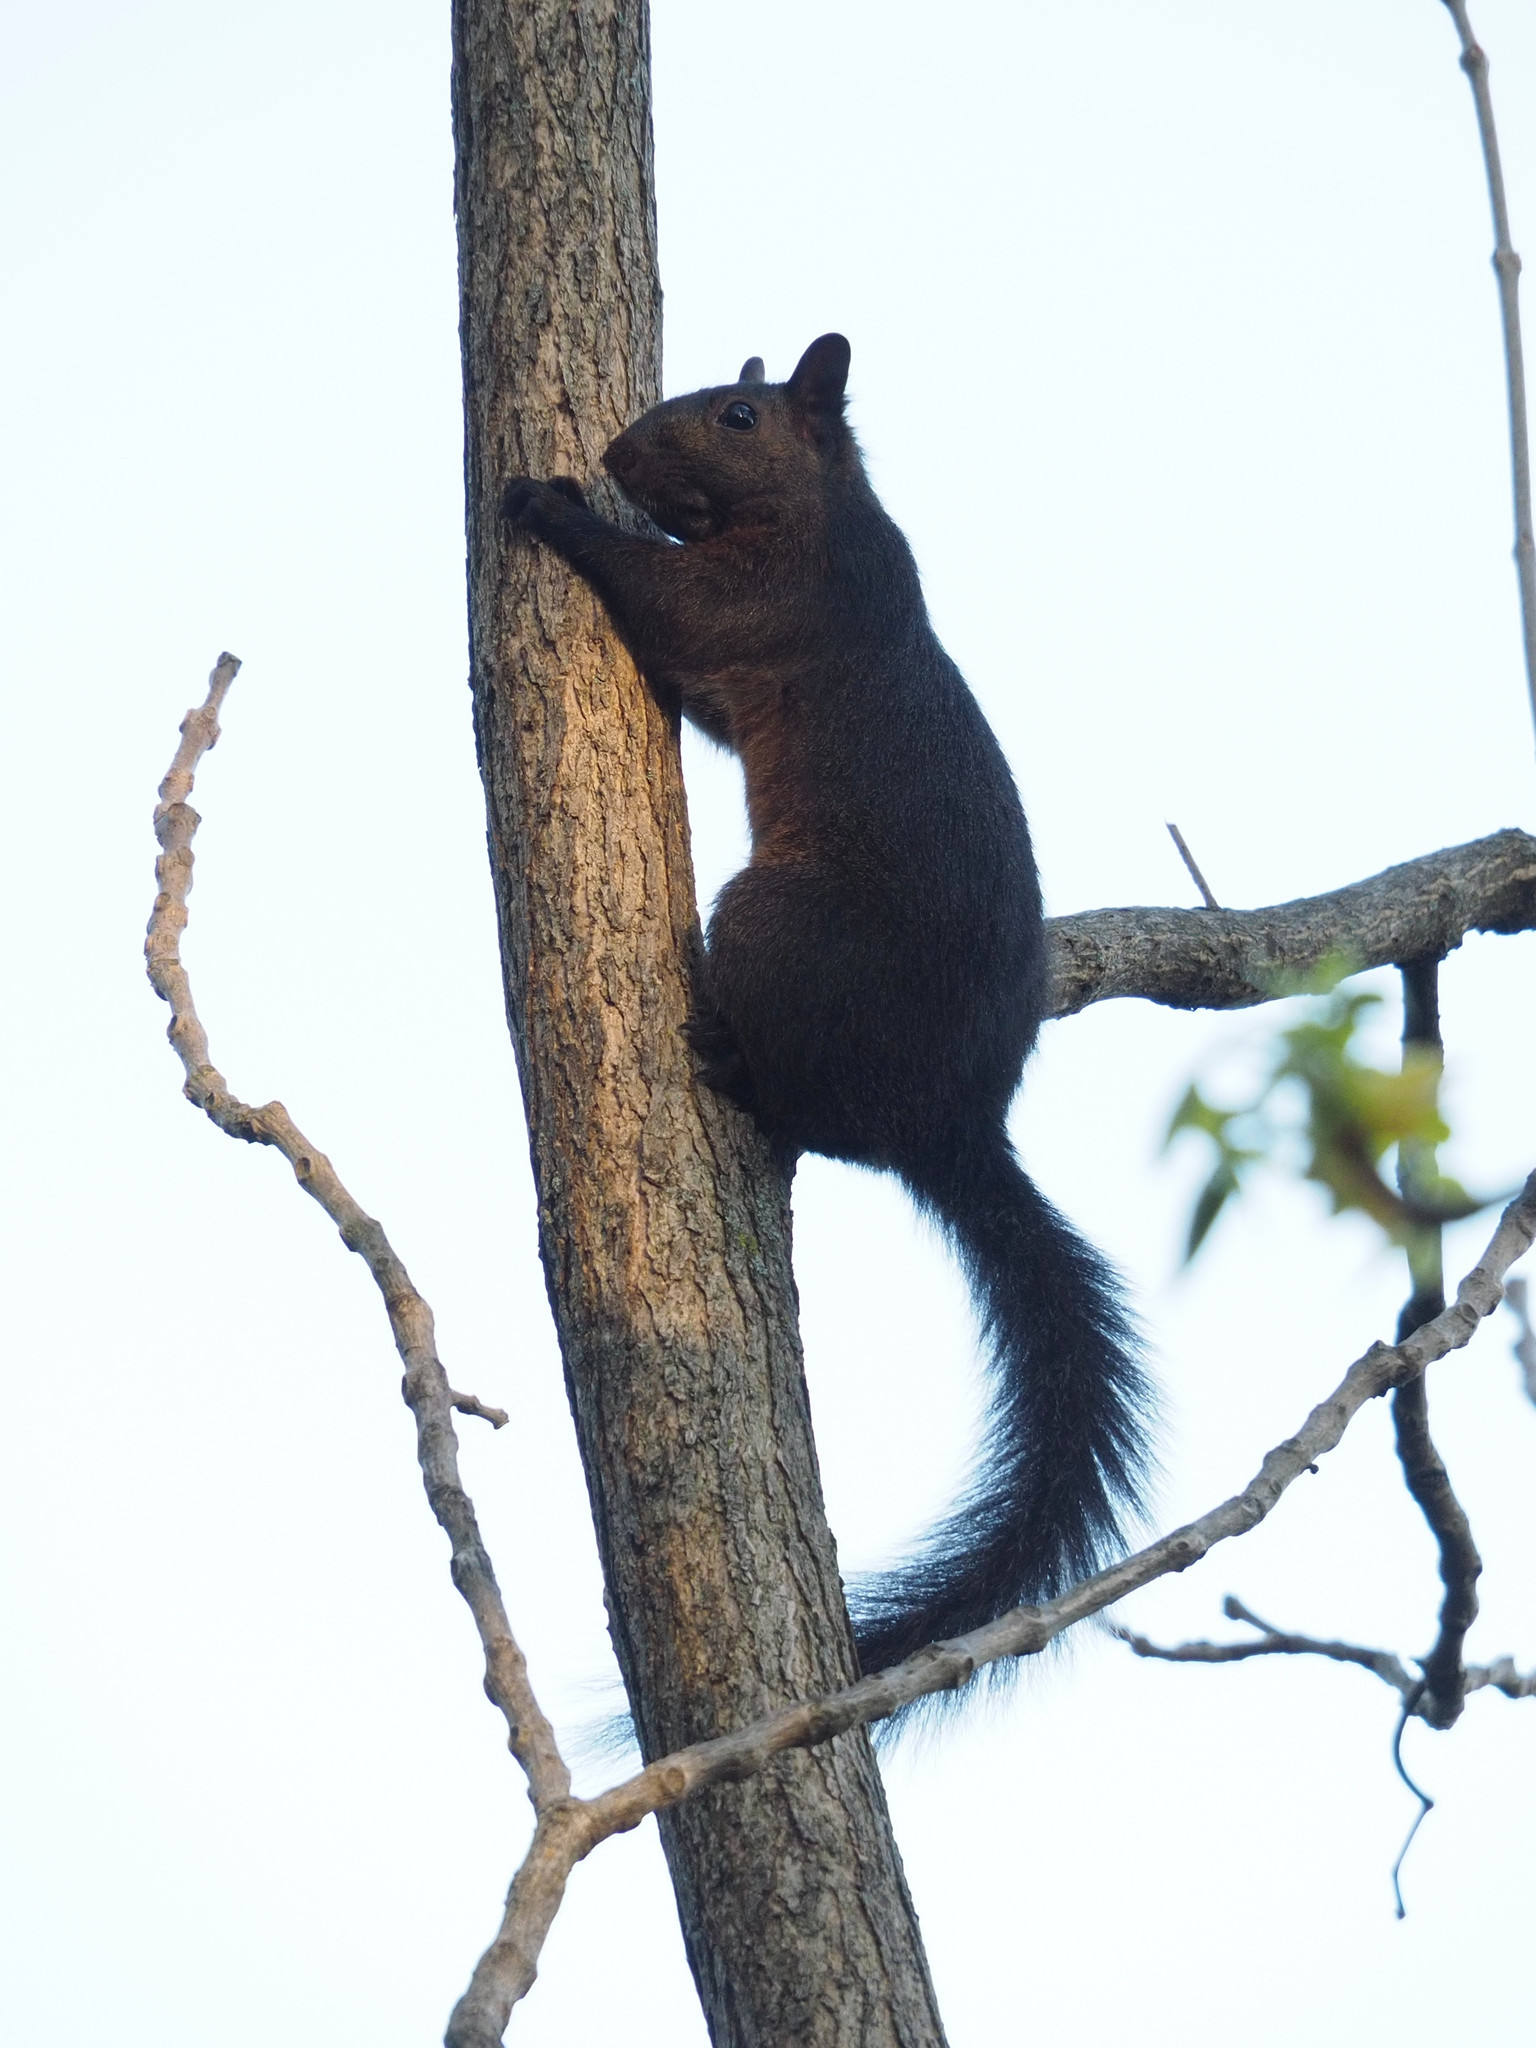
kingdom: Animalia
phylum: Chordata
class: Mammalia
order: Rodentia
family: Sciuridae
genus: Sciurus
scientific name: Sciurus carolinensis
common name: Eastern gray squirrel
